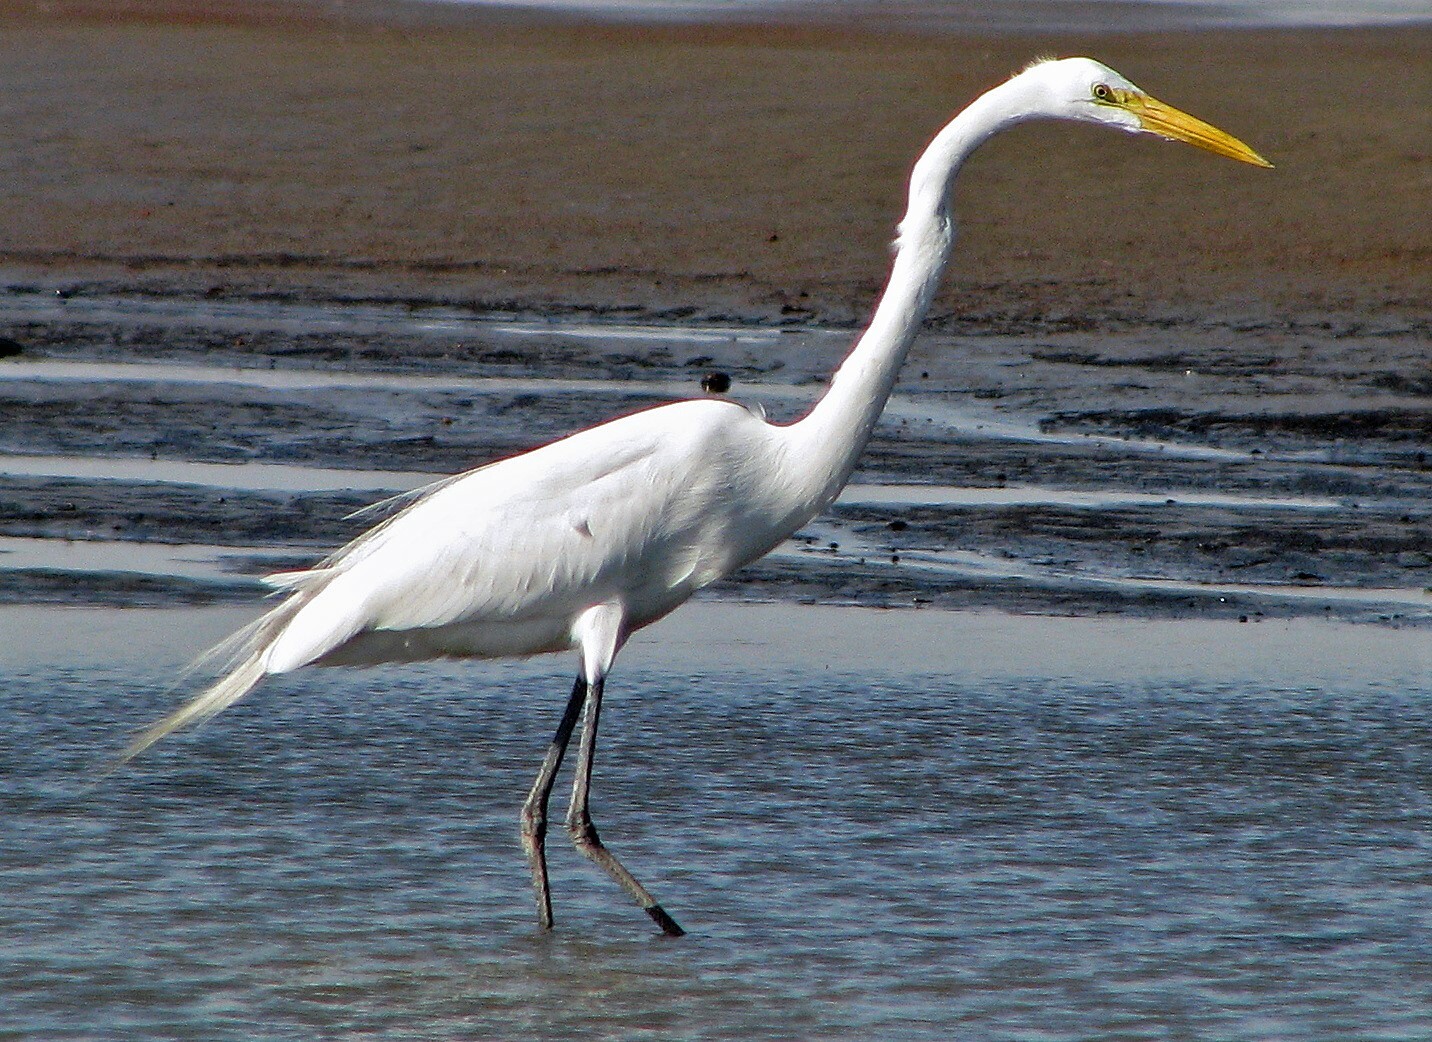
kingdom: Animalia
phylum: Chordata
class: Aves
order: Pelecaniformes
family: Ardeidae
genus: Ardea
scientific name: Ardea alba
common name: Great egret
